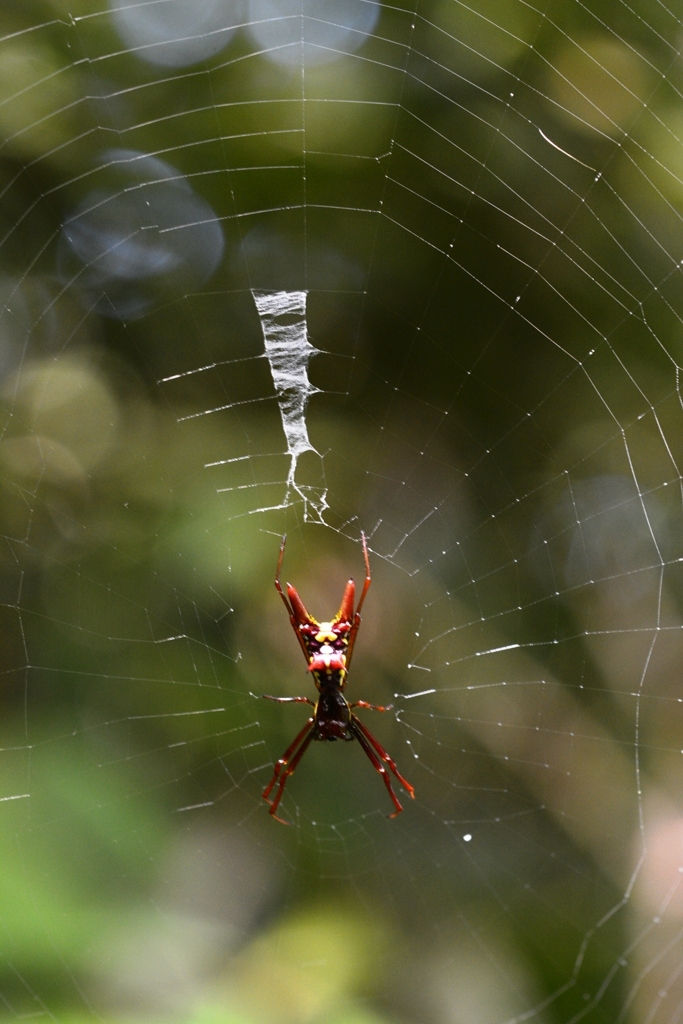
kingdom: Animalia
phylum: Arthropoda
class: Arachnida
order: Araneae
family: Araneidae
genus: Micrathena
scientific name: Micrathena sexspinosa
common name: Orb weavers
